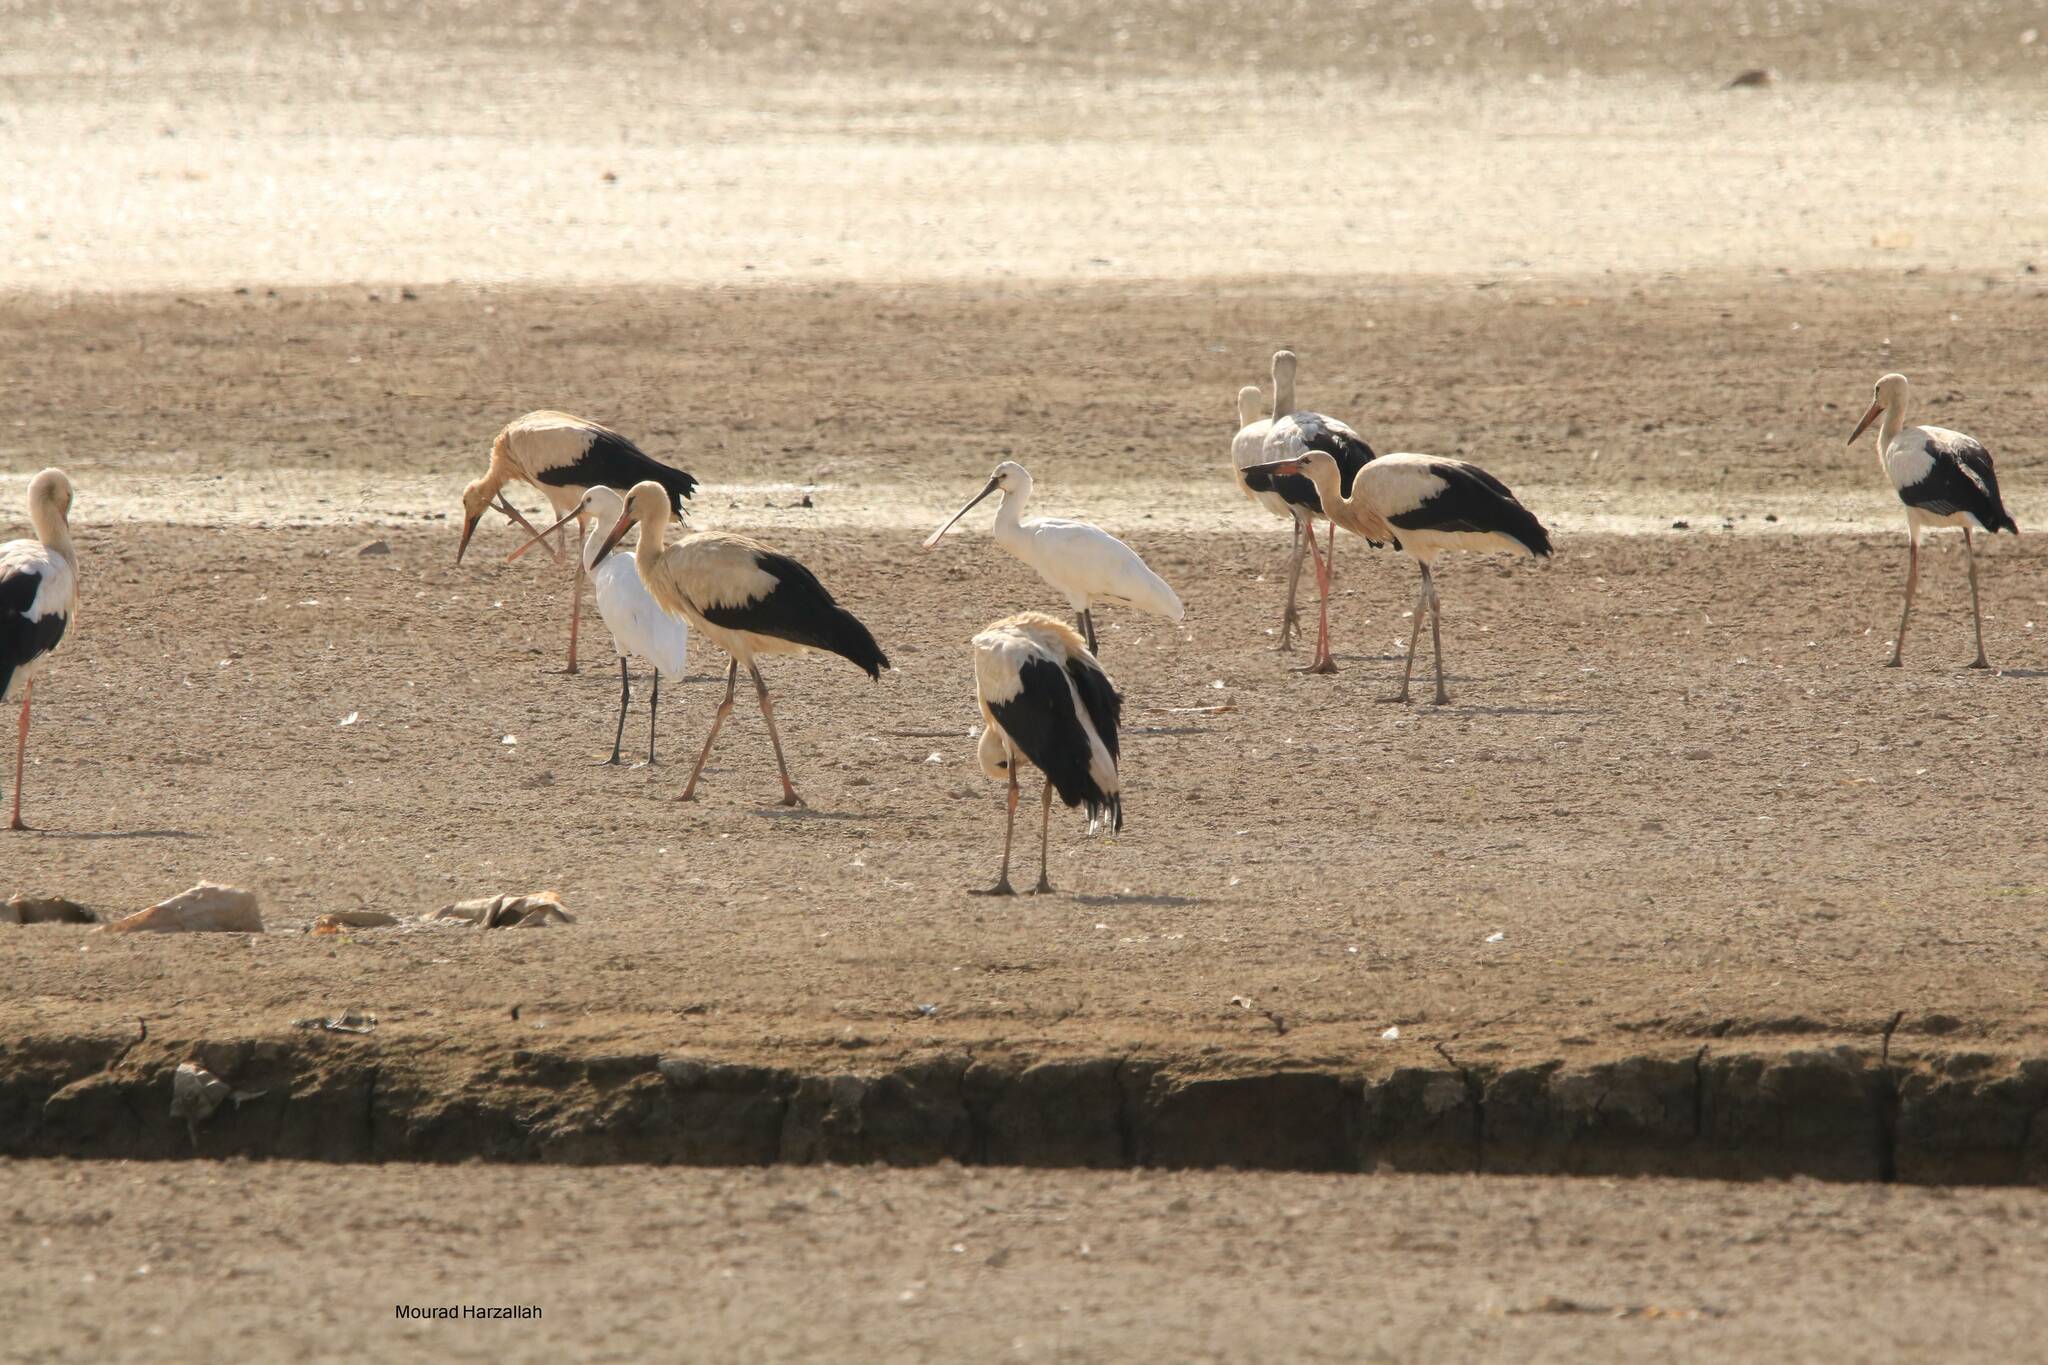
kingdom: Animalia
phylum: Chordata
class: Aves
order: Ciconiiformes
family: Ciconiidae
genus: Ciconia
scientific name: Ciconia ciconia
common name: White stork
